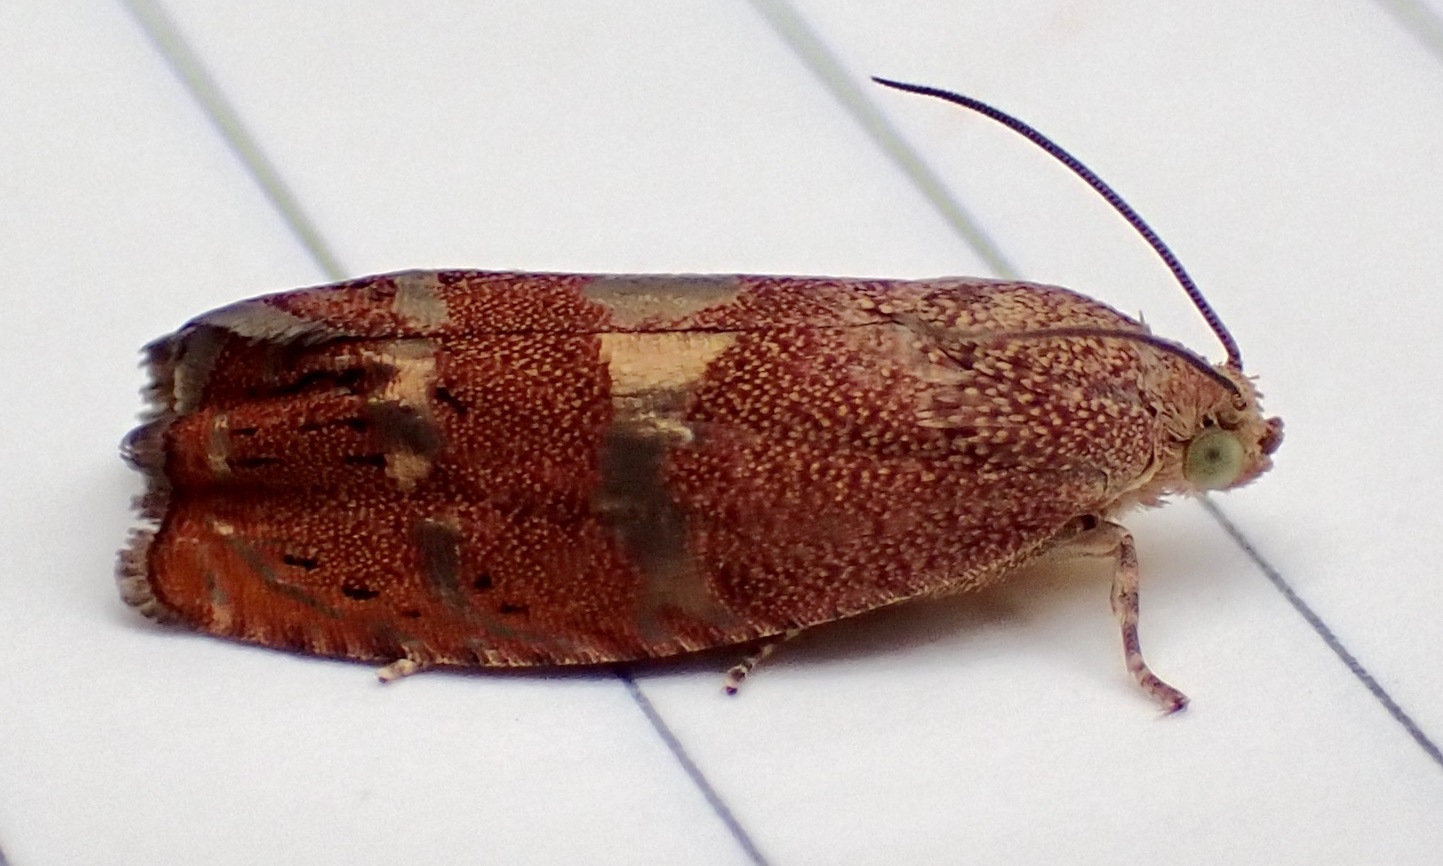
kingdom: Animalia
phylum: Arthropoda
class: Insecta
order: Lepidoptera
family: Tortricidae
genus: Cydia
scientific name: Cydia latiferreana
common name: Filbertworm moth
